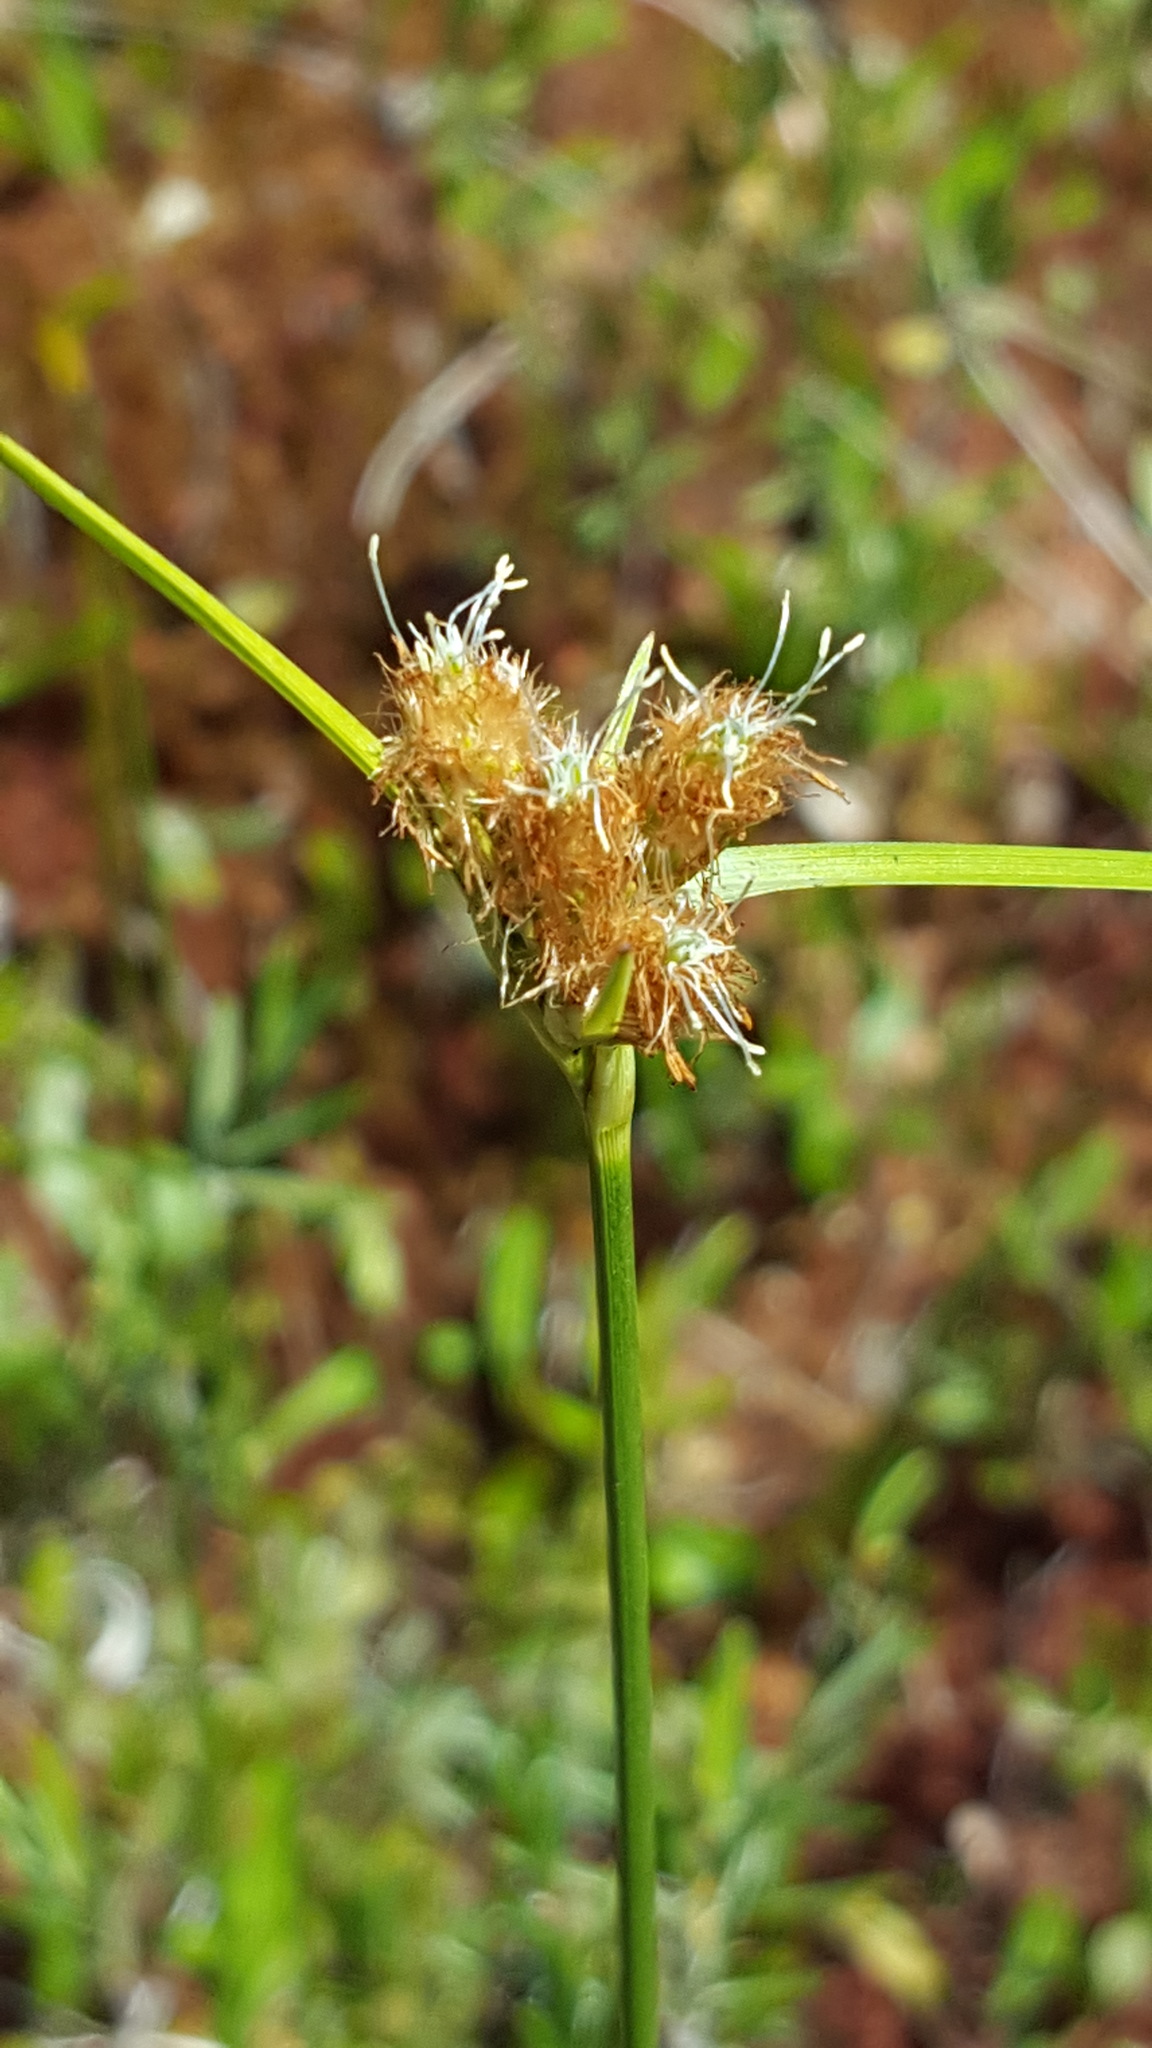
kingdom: Plantae
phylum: Tracheophyta
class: Liliopsida
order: Poales
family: Cyperaceae
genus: Eriophorum
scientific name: Eriophorum virginicum
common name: Tawny cottongrass
